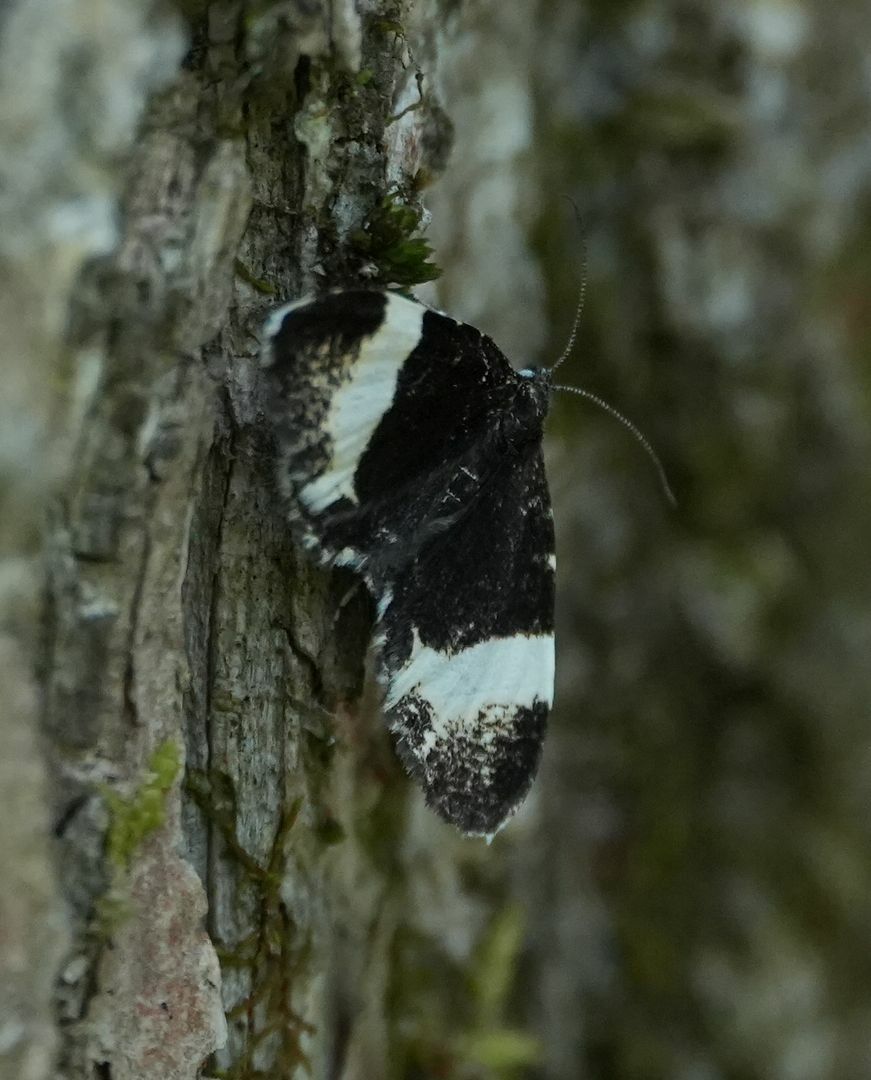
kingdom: Animalia
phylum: Arthropoda
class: Insecta
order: Lepidoptera
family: Geometridae
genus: Trichodezia
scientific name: Trichodezia albovittata
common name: White striped black
